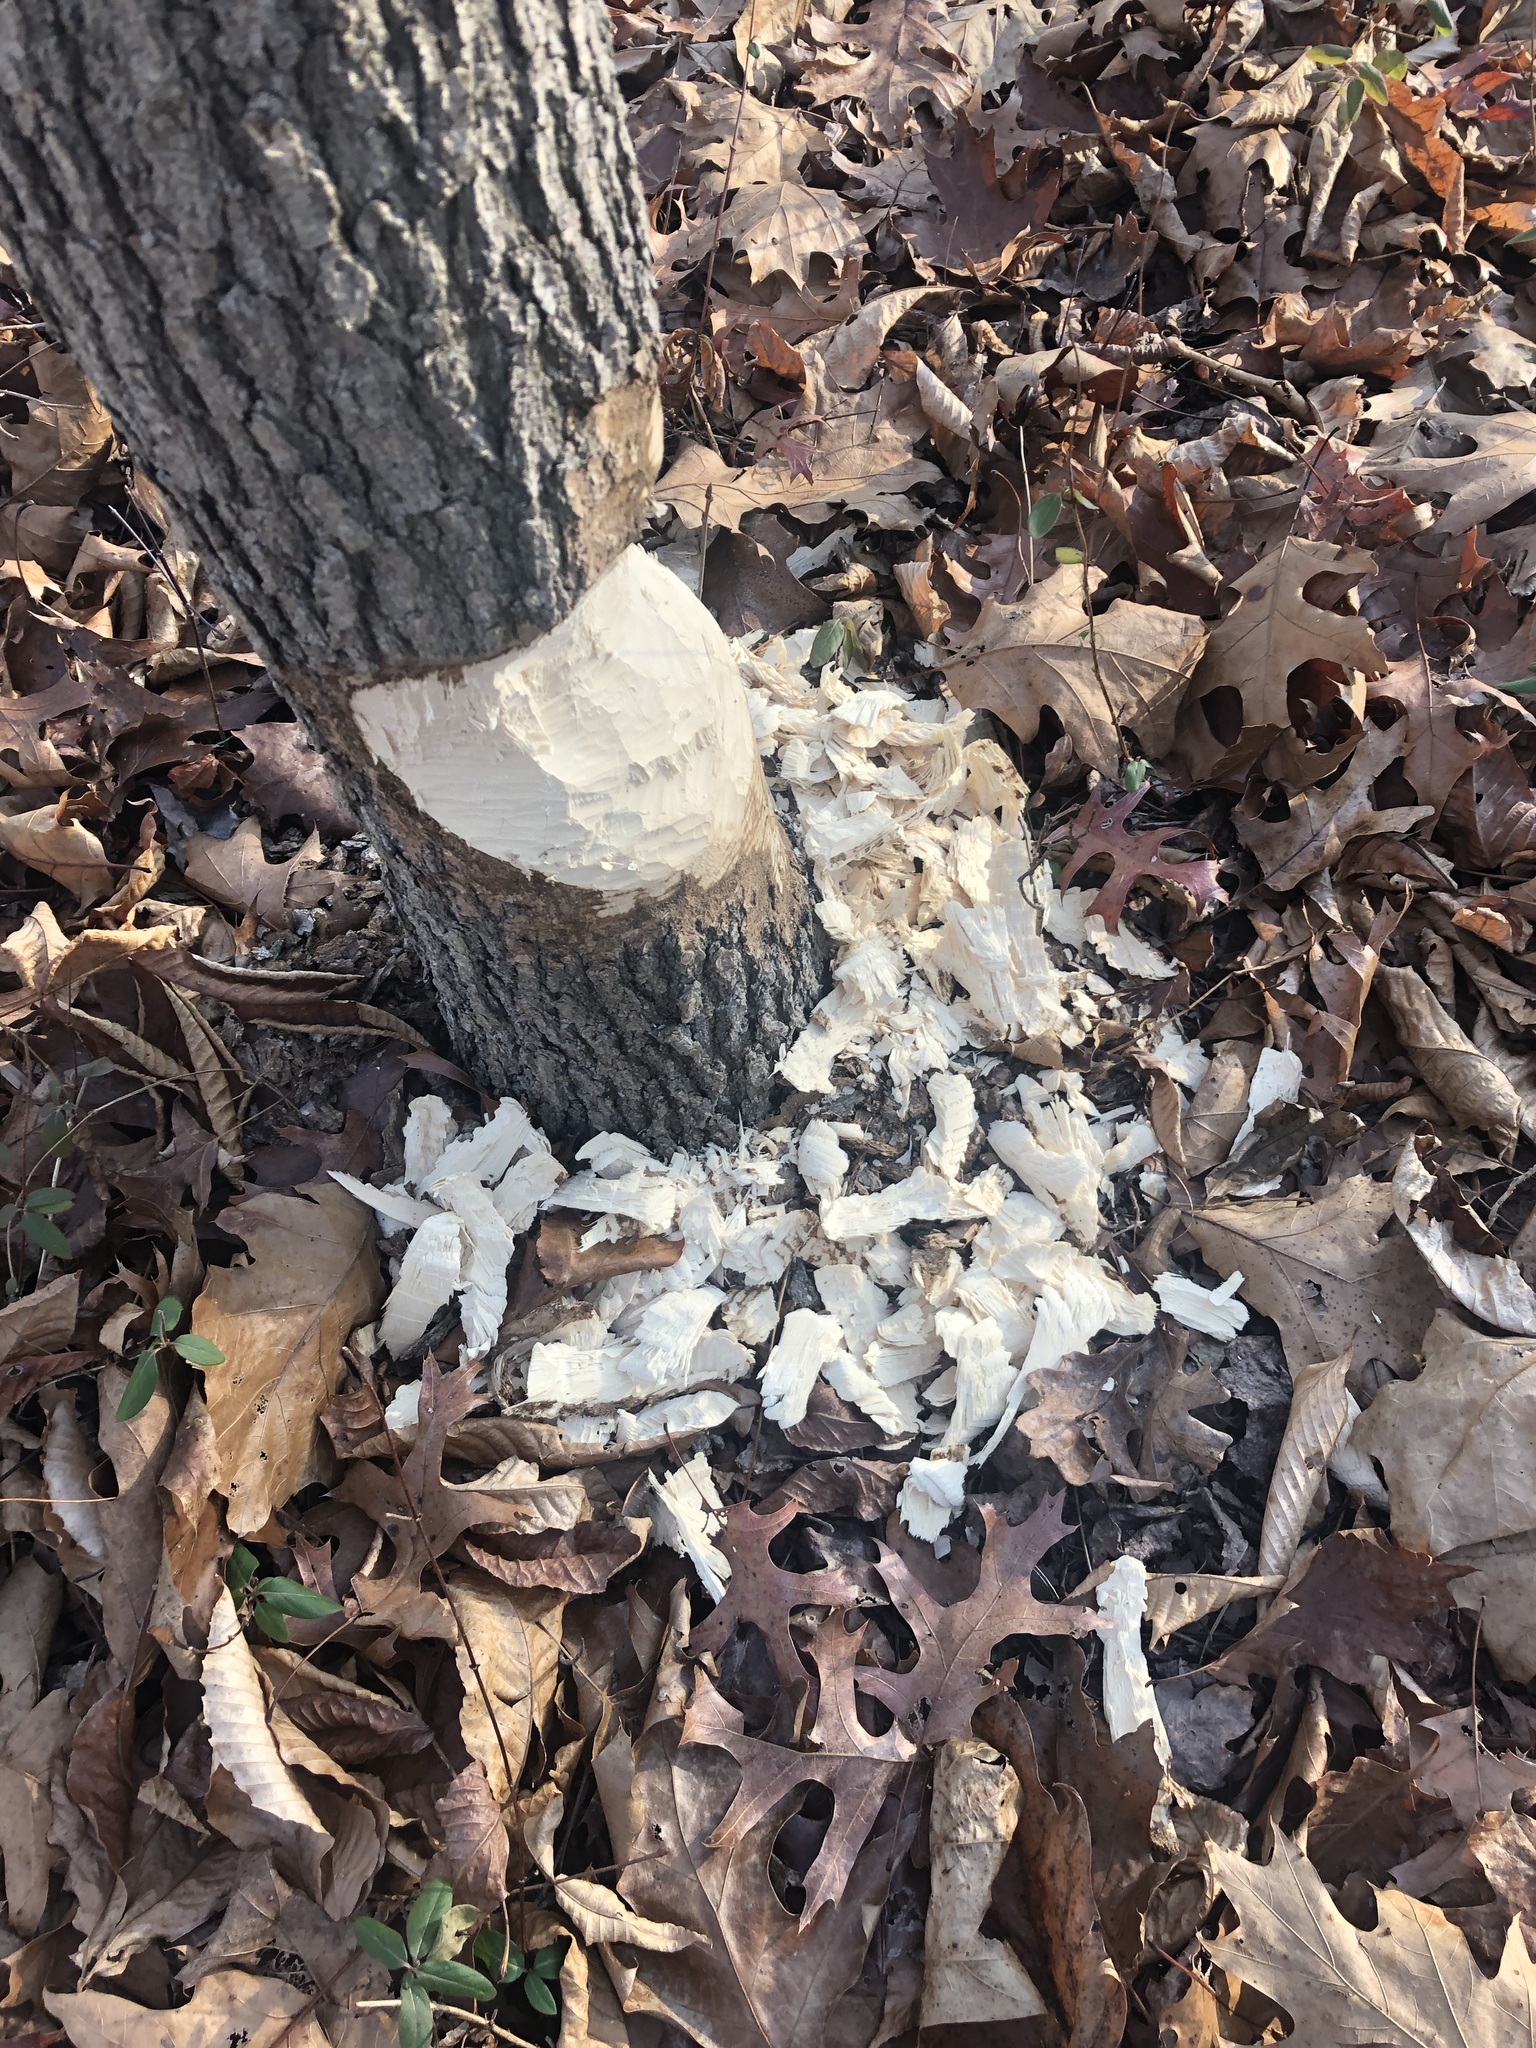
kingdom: Animalia
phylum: Chordata
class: Mammalia
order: Rodentia
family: Castoridae
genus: Castor
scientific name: Castor canadensis
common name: American beaver
